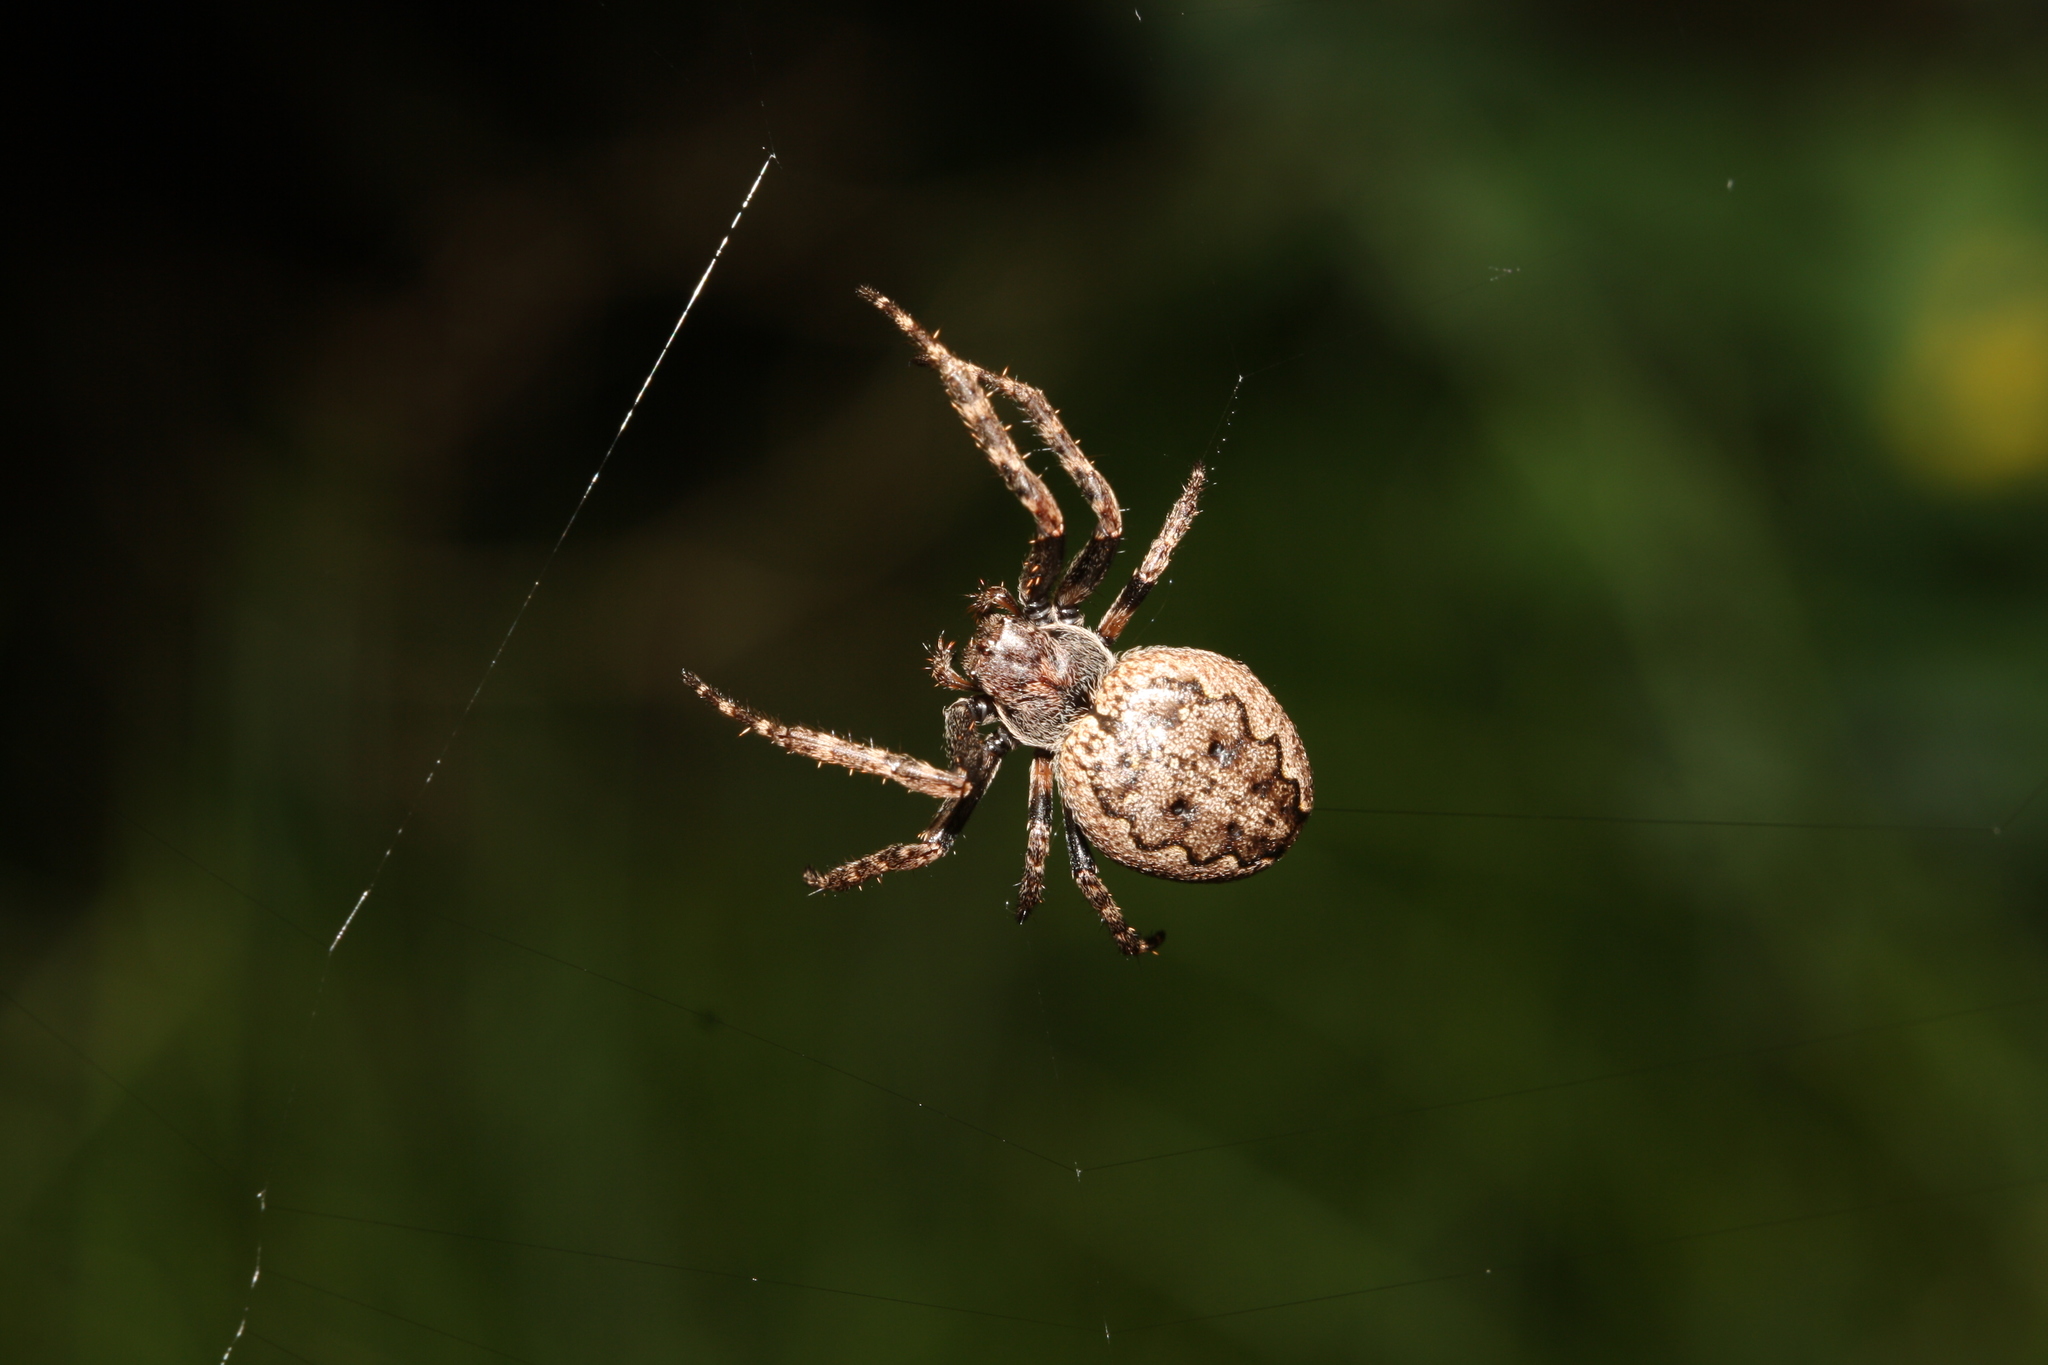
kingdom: Animalia
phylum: Arthropoda
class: Arachnida
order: Araneae
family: Araneidae
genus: Nuctenea
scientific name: Nuctenea umbratica
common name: Toad spider
